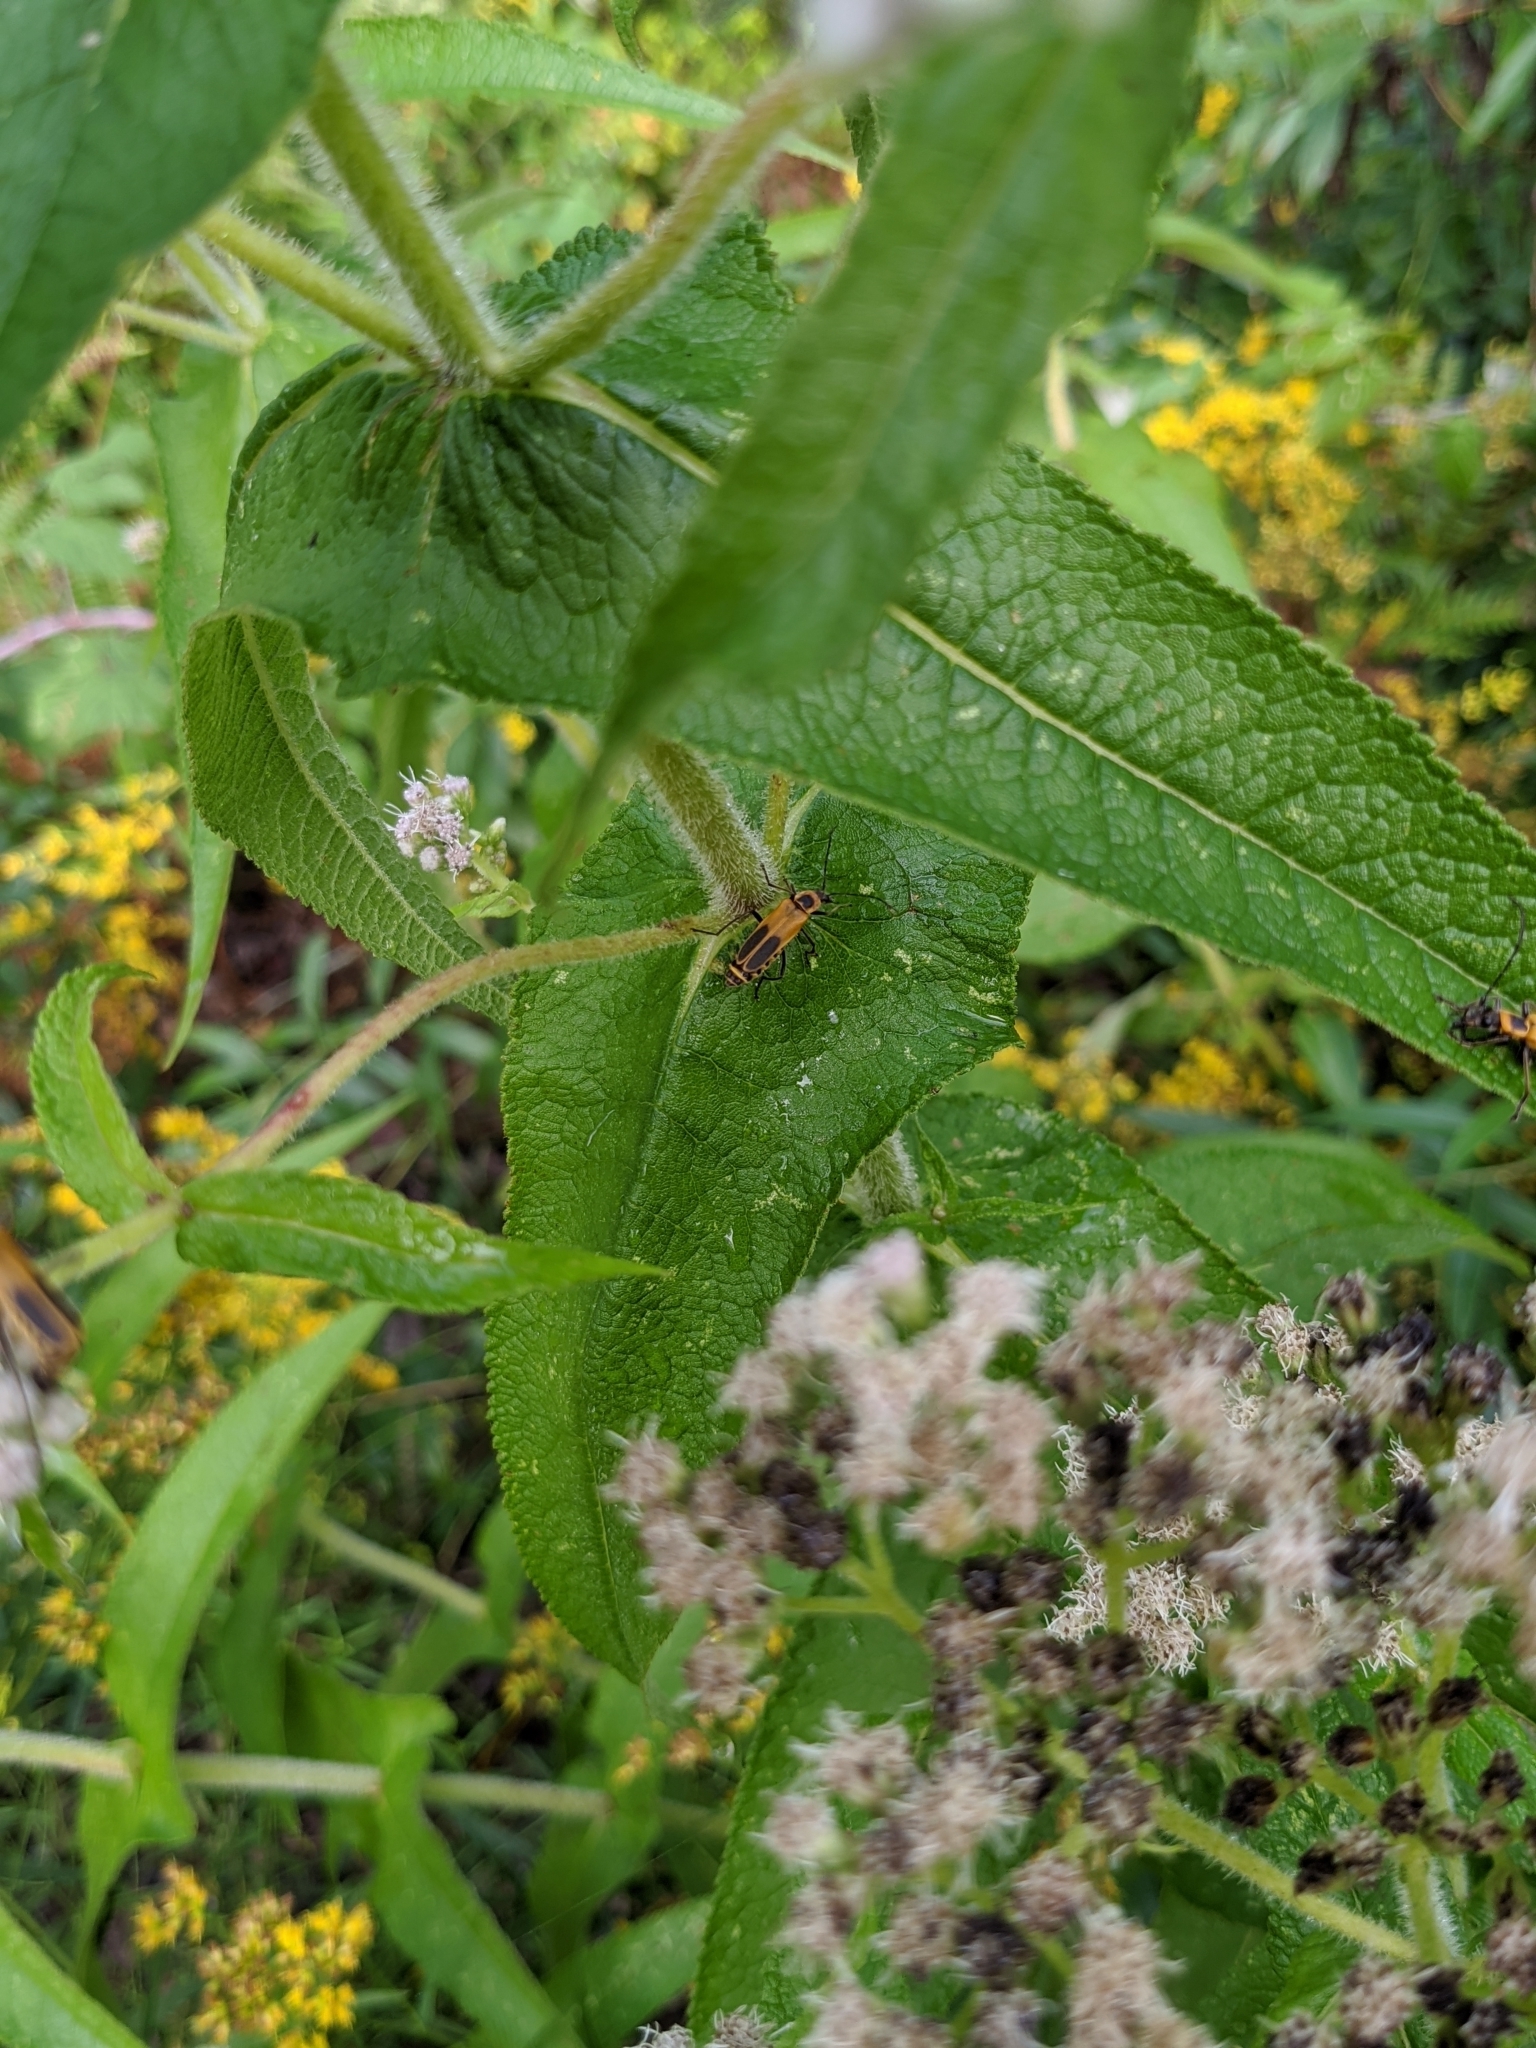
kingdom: Animalia
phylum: Arthropoda
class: Insecta
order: Coleoptera
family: Cantharidae
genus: Chauliognathus
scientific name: Chauliognathus pensylvanicus
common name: Goldenrod soldier beetle
